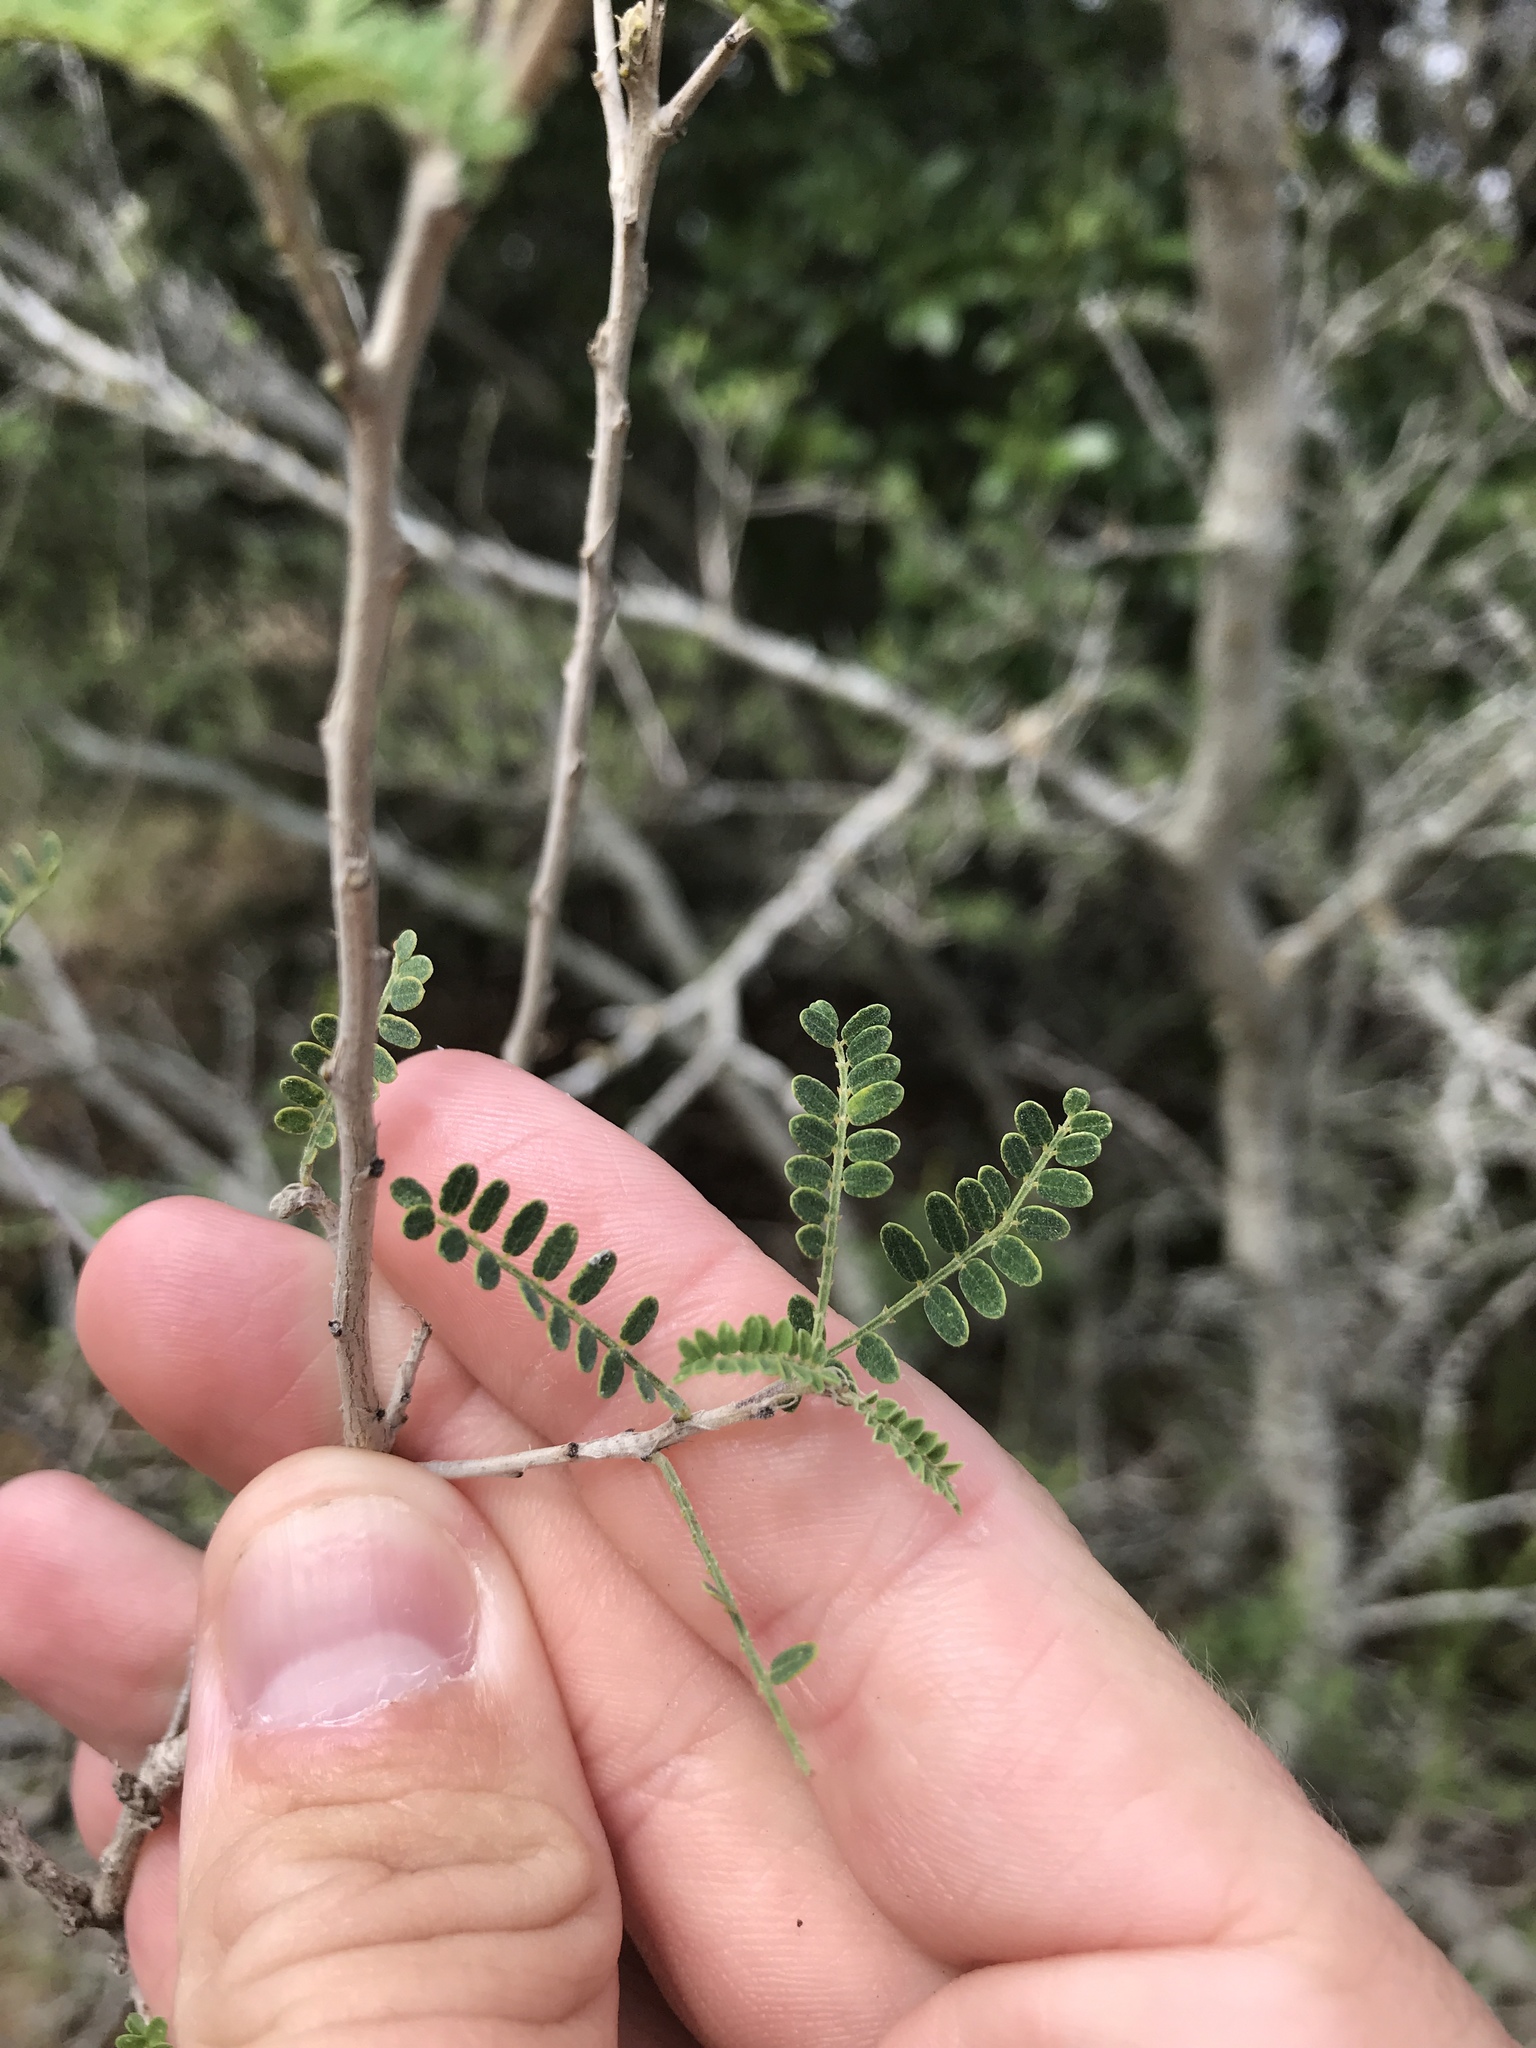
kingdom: Plantae
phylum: Tracheophyta
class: Magnoliopsida
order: Fabales
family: Fabaceae
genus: Eysenhardtia
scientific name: Eysenhardtia texana
